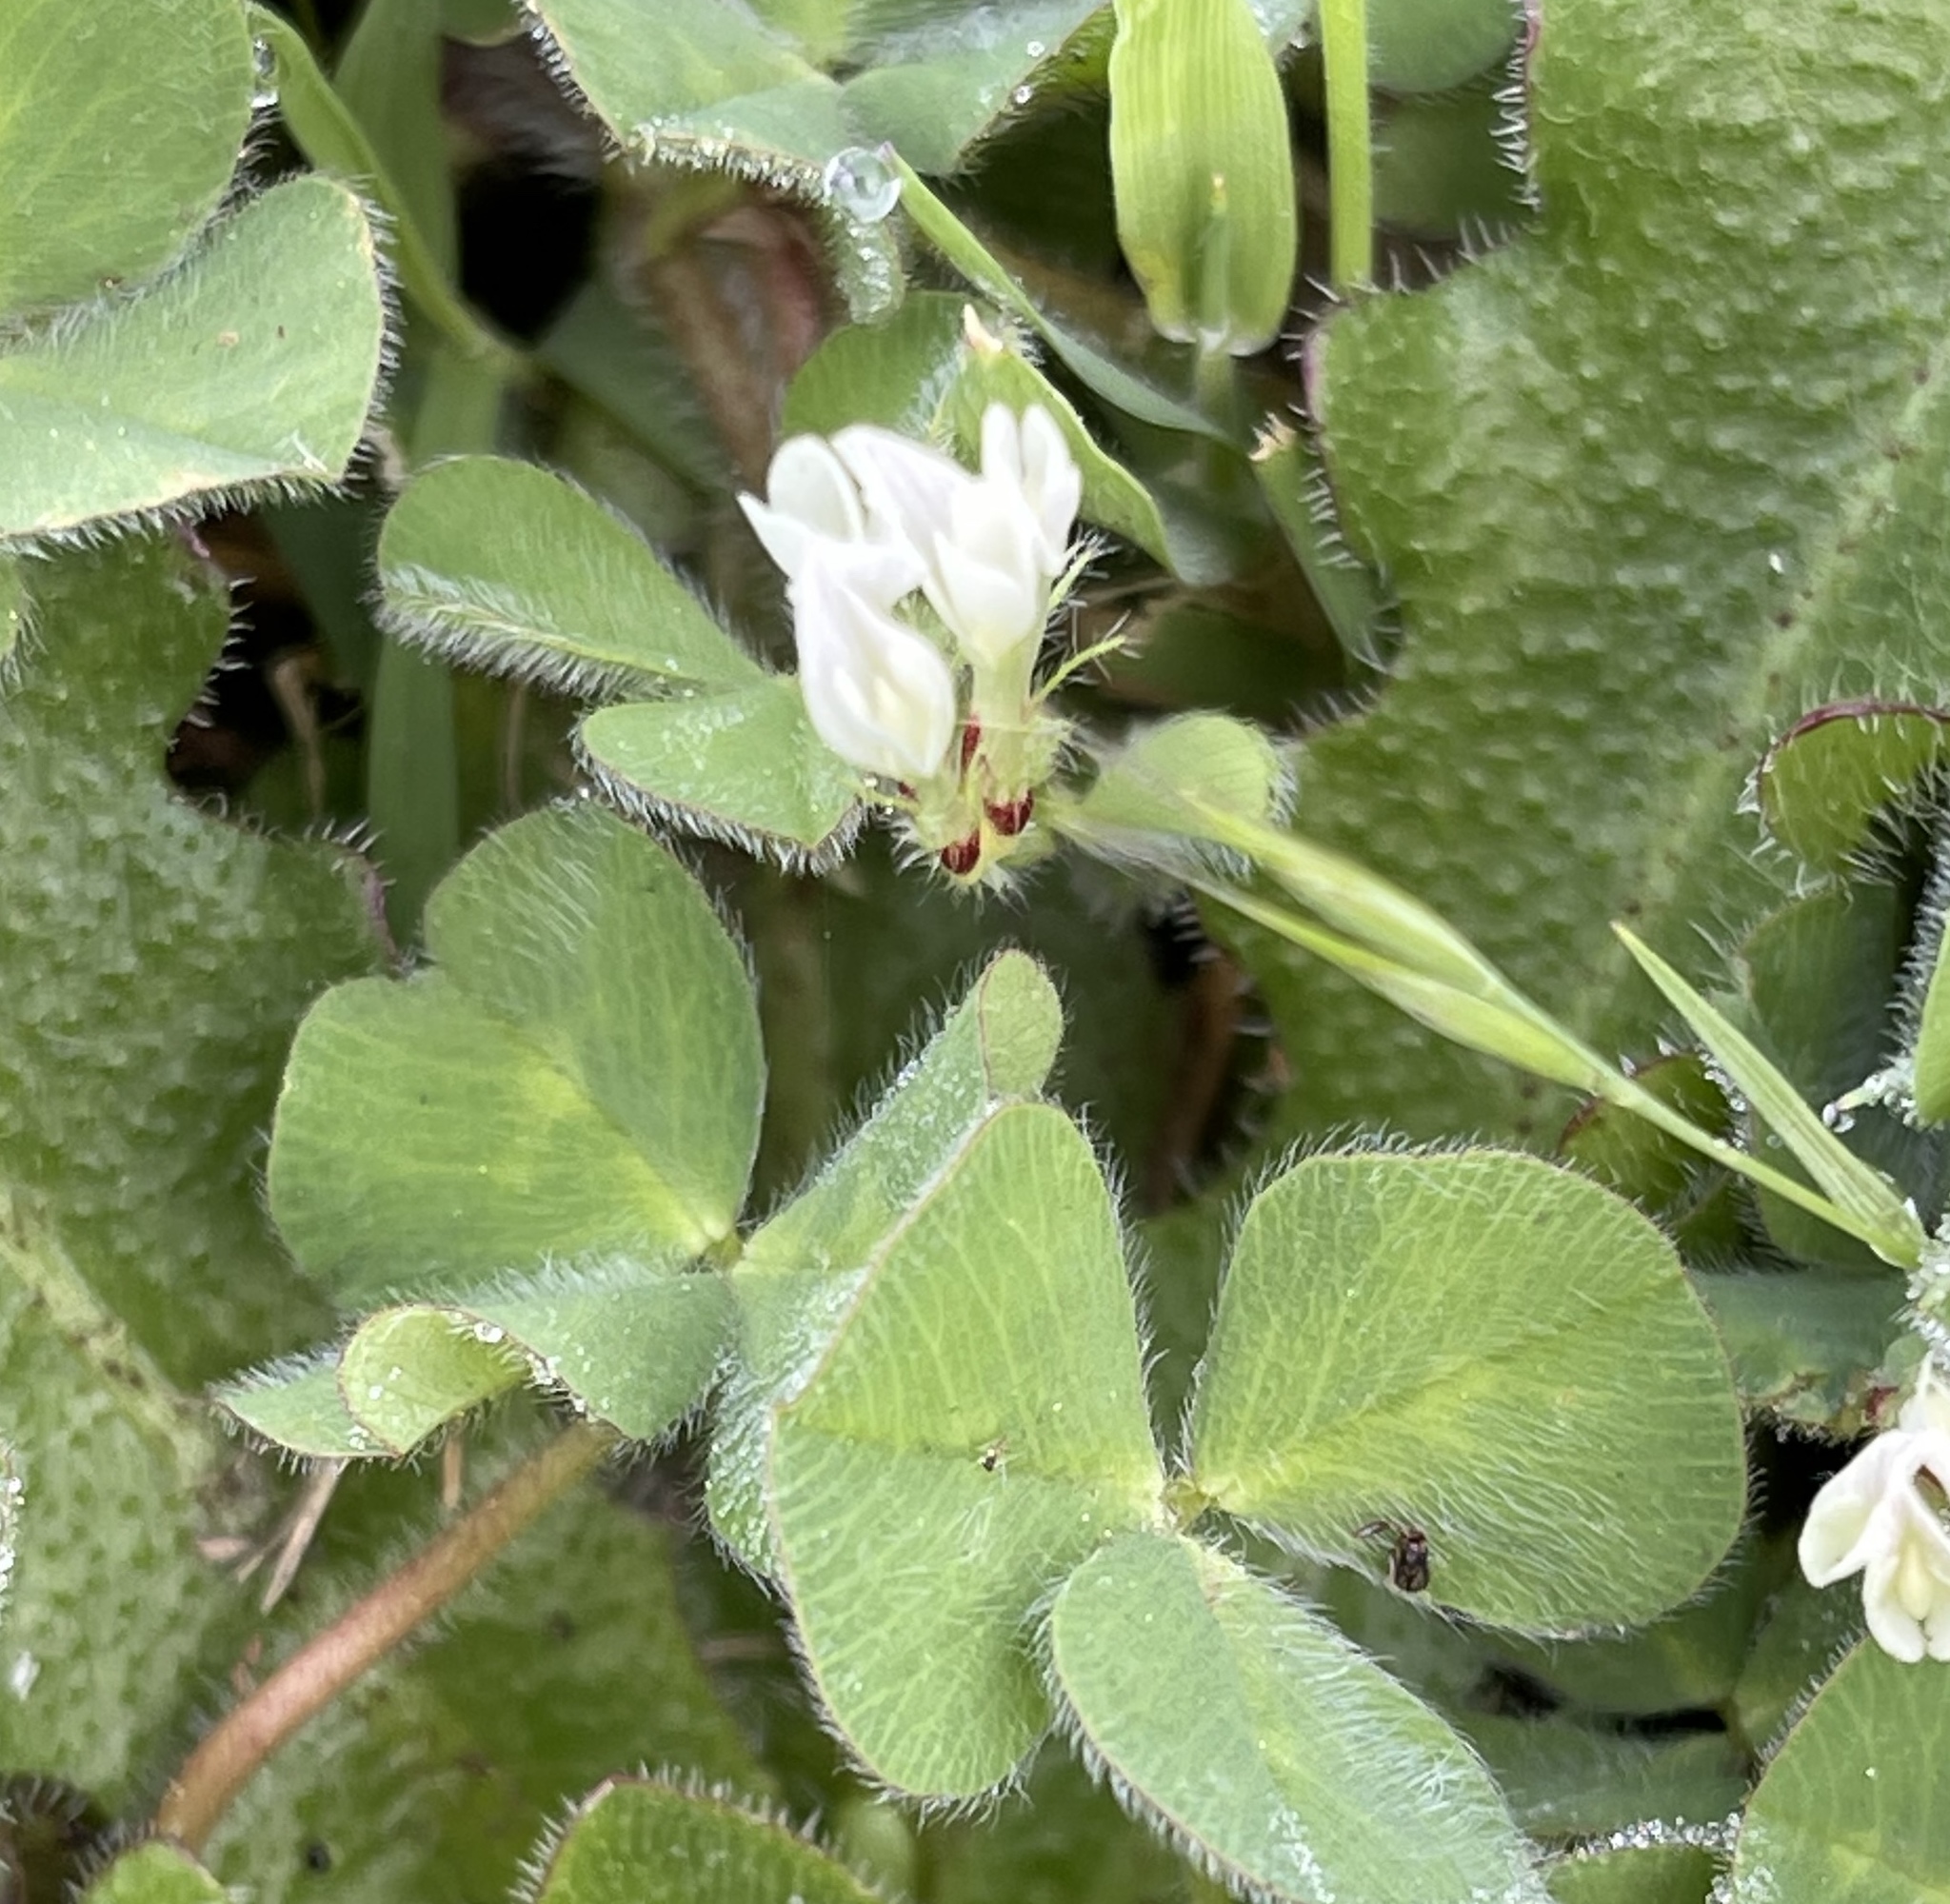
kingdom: Plantae
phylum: Tracheophyta
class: Magnoliopsida
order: Fabales
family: Fabaceae
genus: Trifolium
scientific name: Trifolium subterraneum
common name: Subterranean clover
